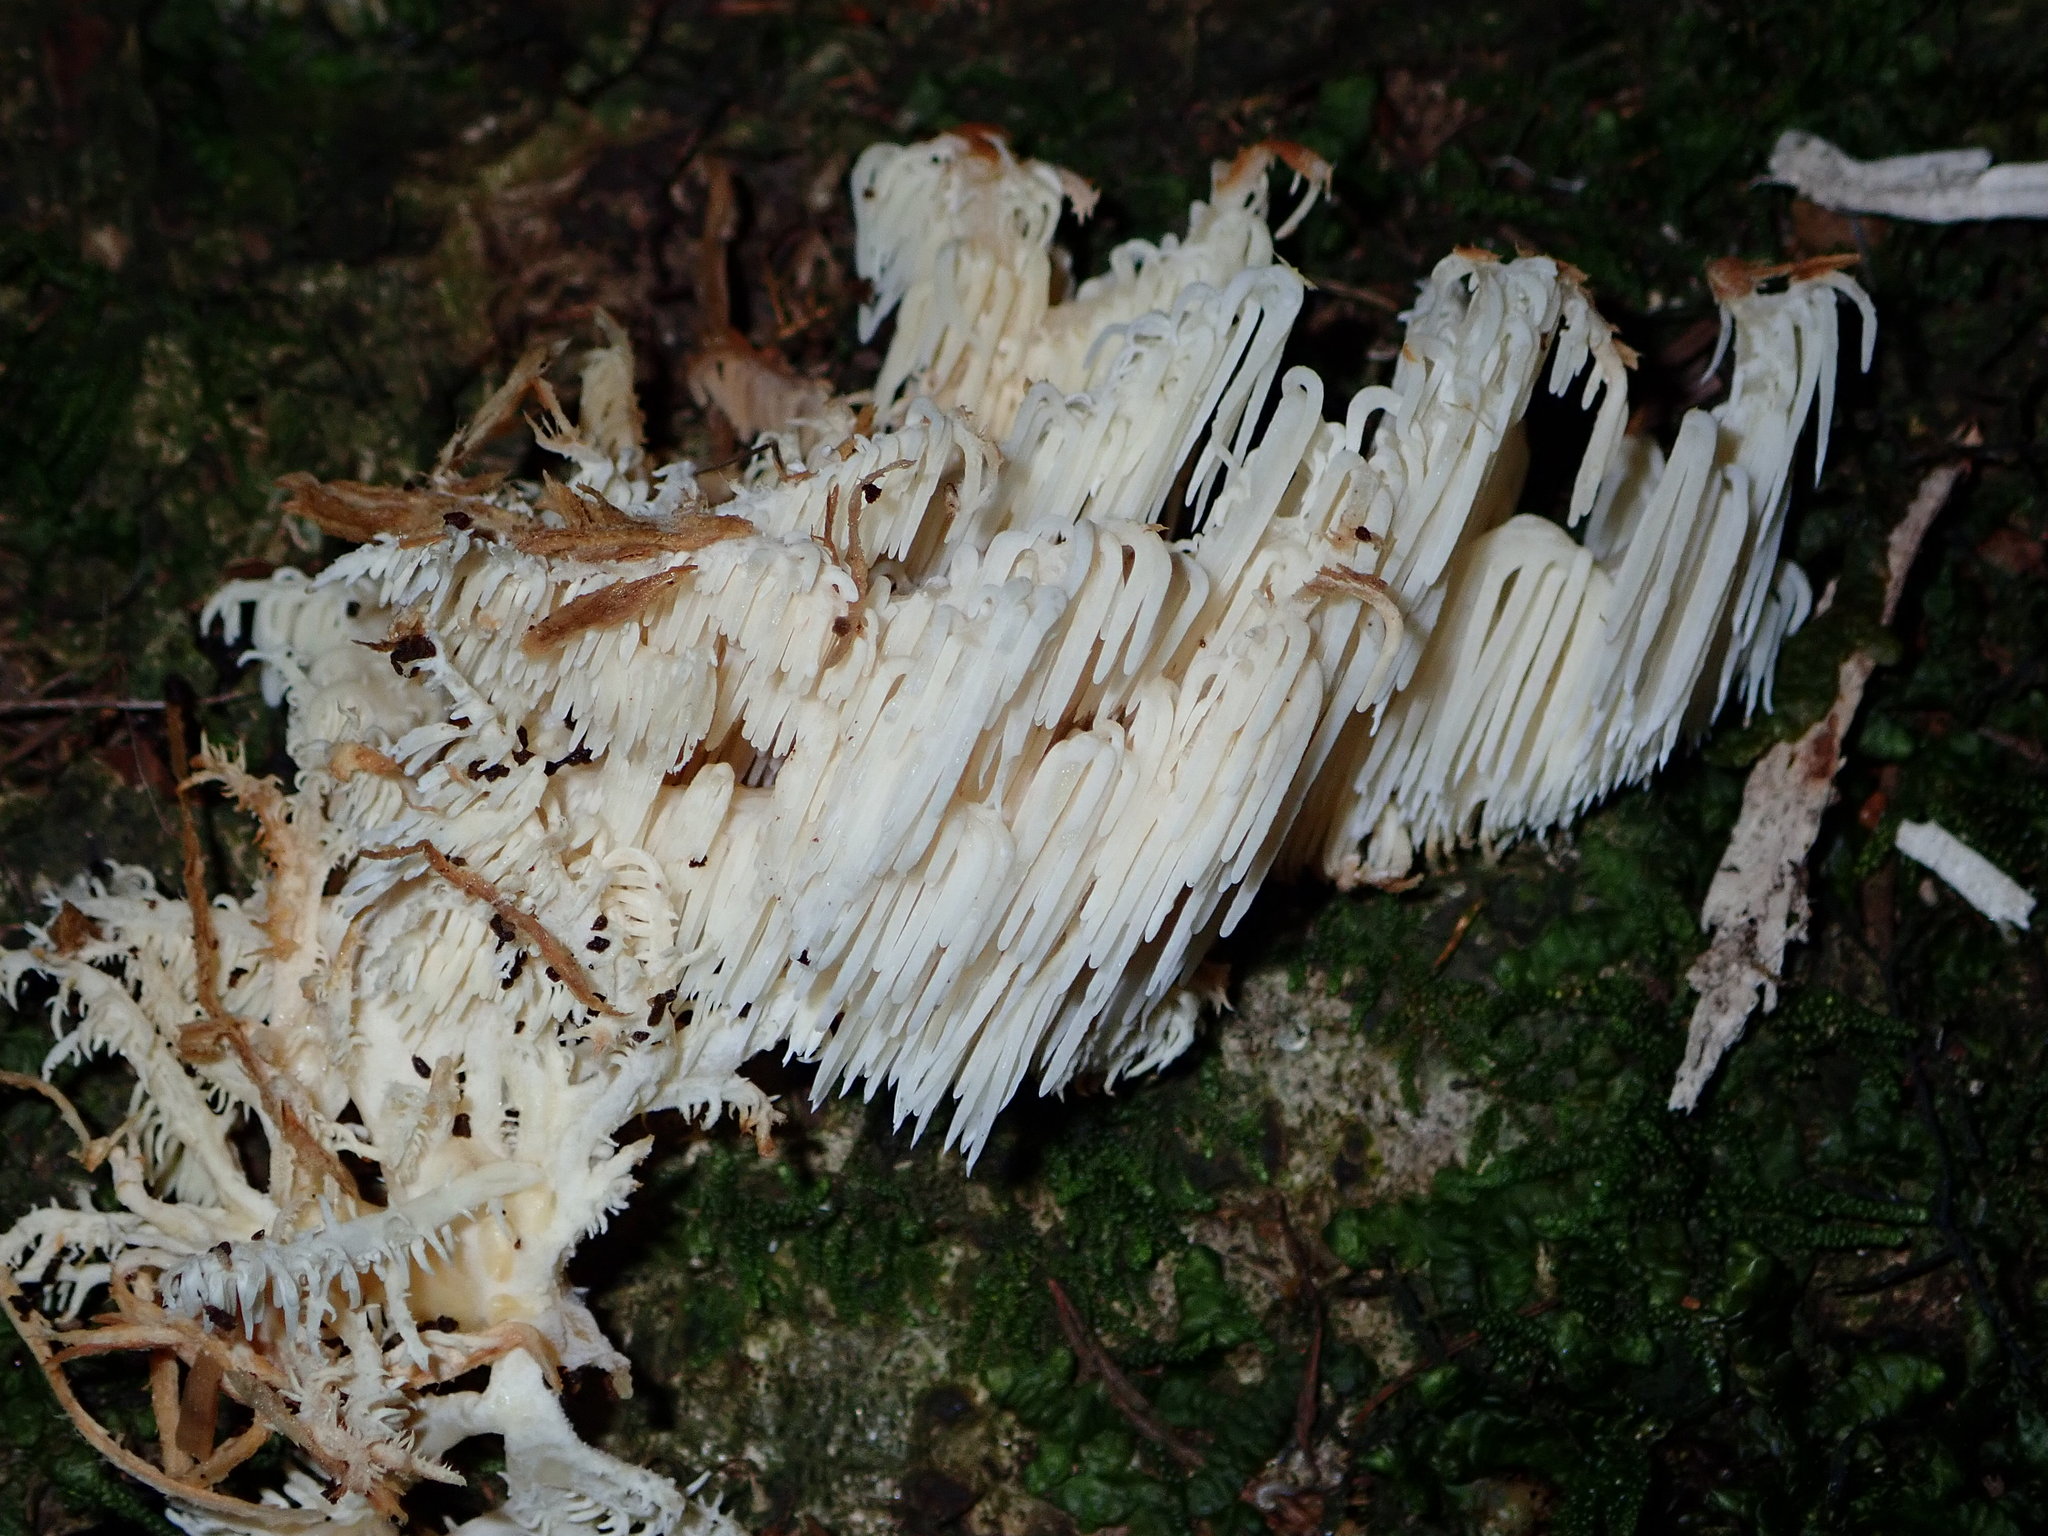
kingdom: Fungi
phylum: Basidiomycota
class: Agaricomycetes
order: Russulales
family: Hericiaceae
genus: Hericium
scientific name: Hericium novae-zealandiae
